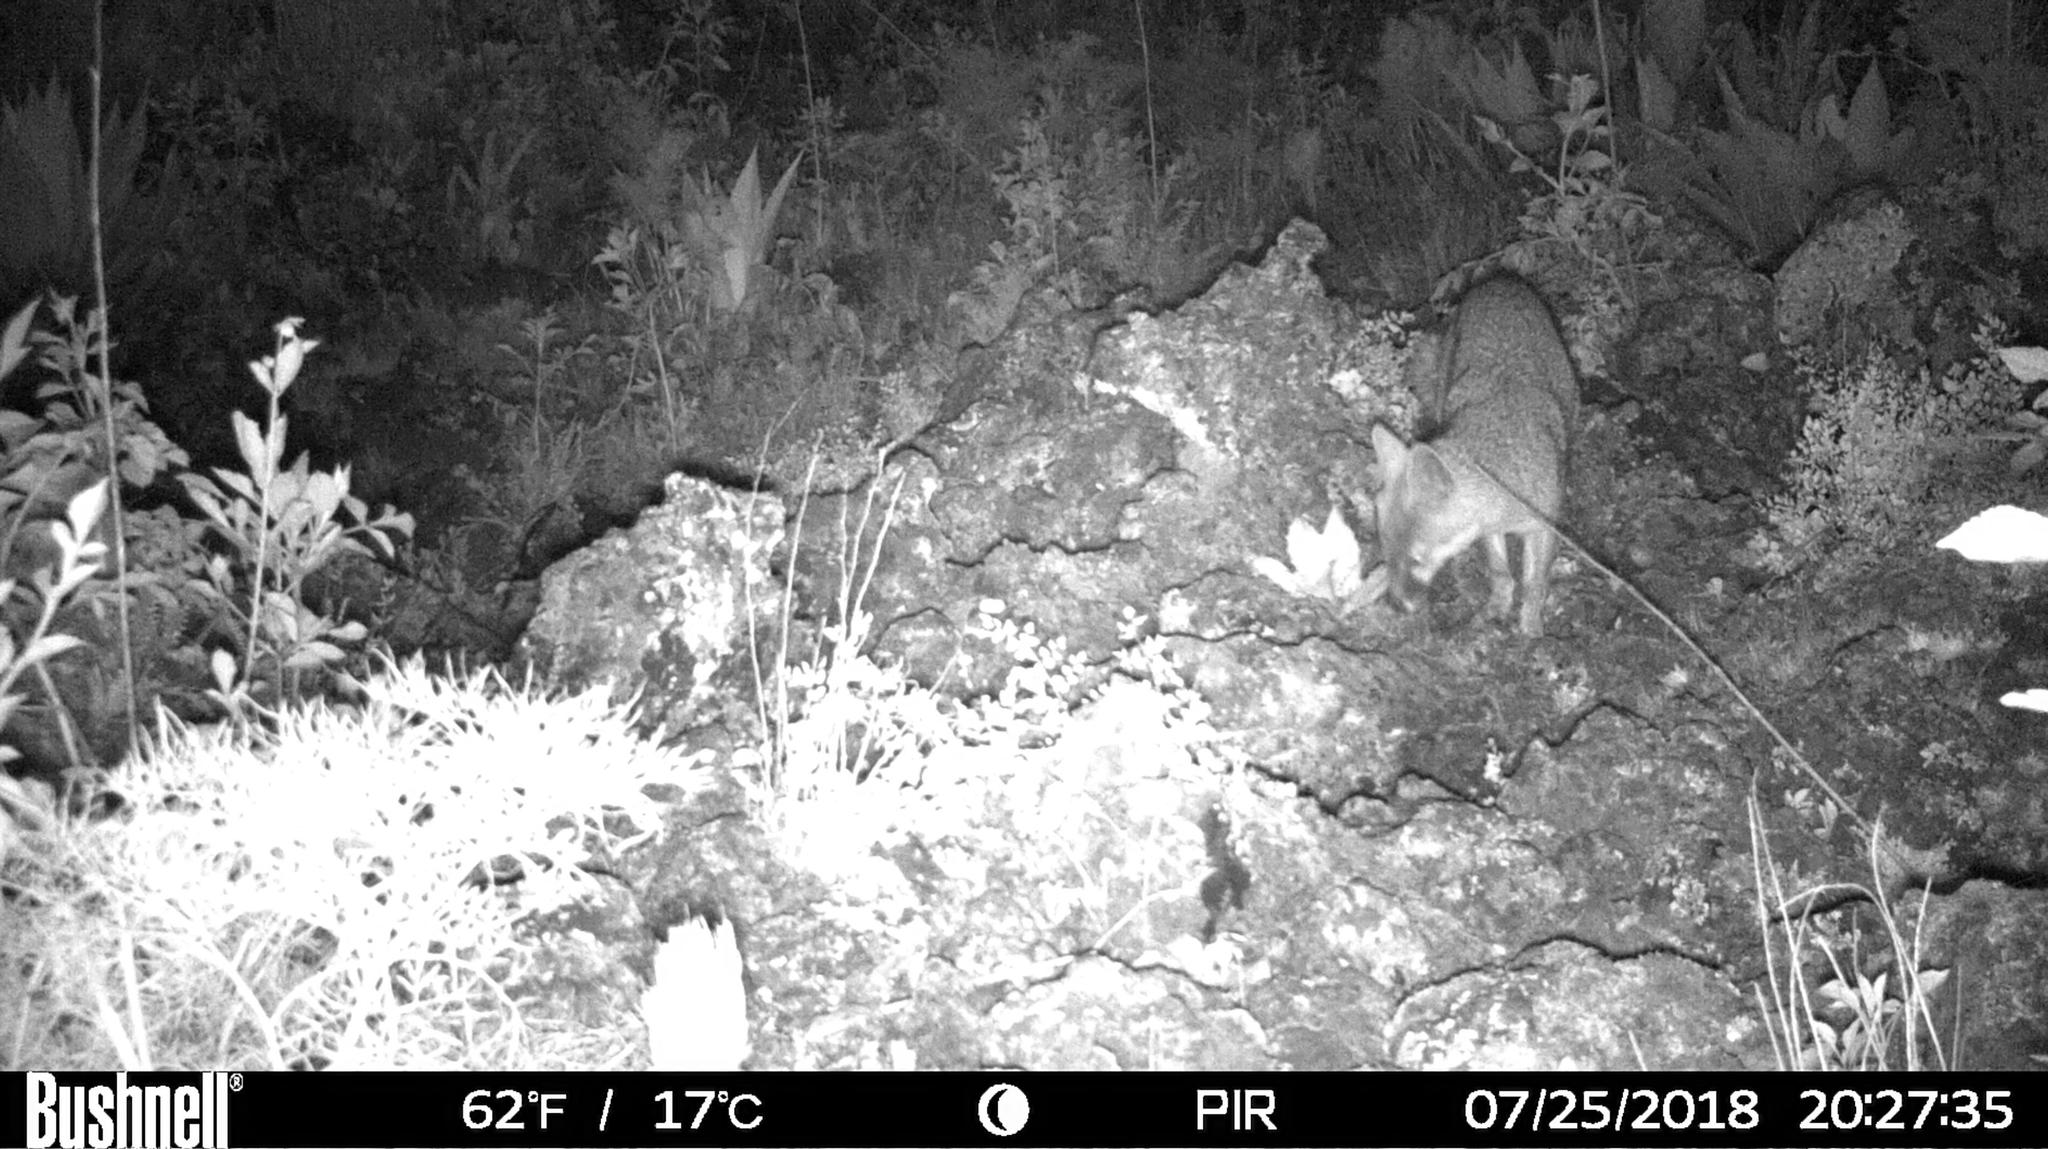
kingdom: Animalia
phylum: Chordata
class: Mammalia
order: Carnivora
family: Canidae
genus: Urocyon
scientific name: Urocyon cinereoargenteus
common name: Gray fox
